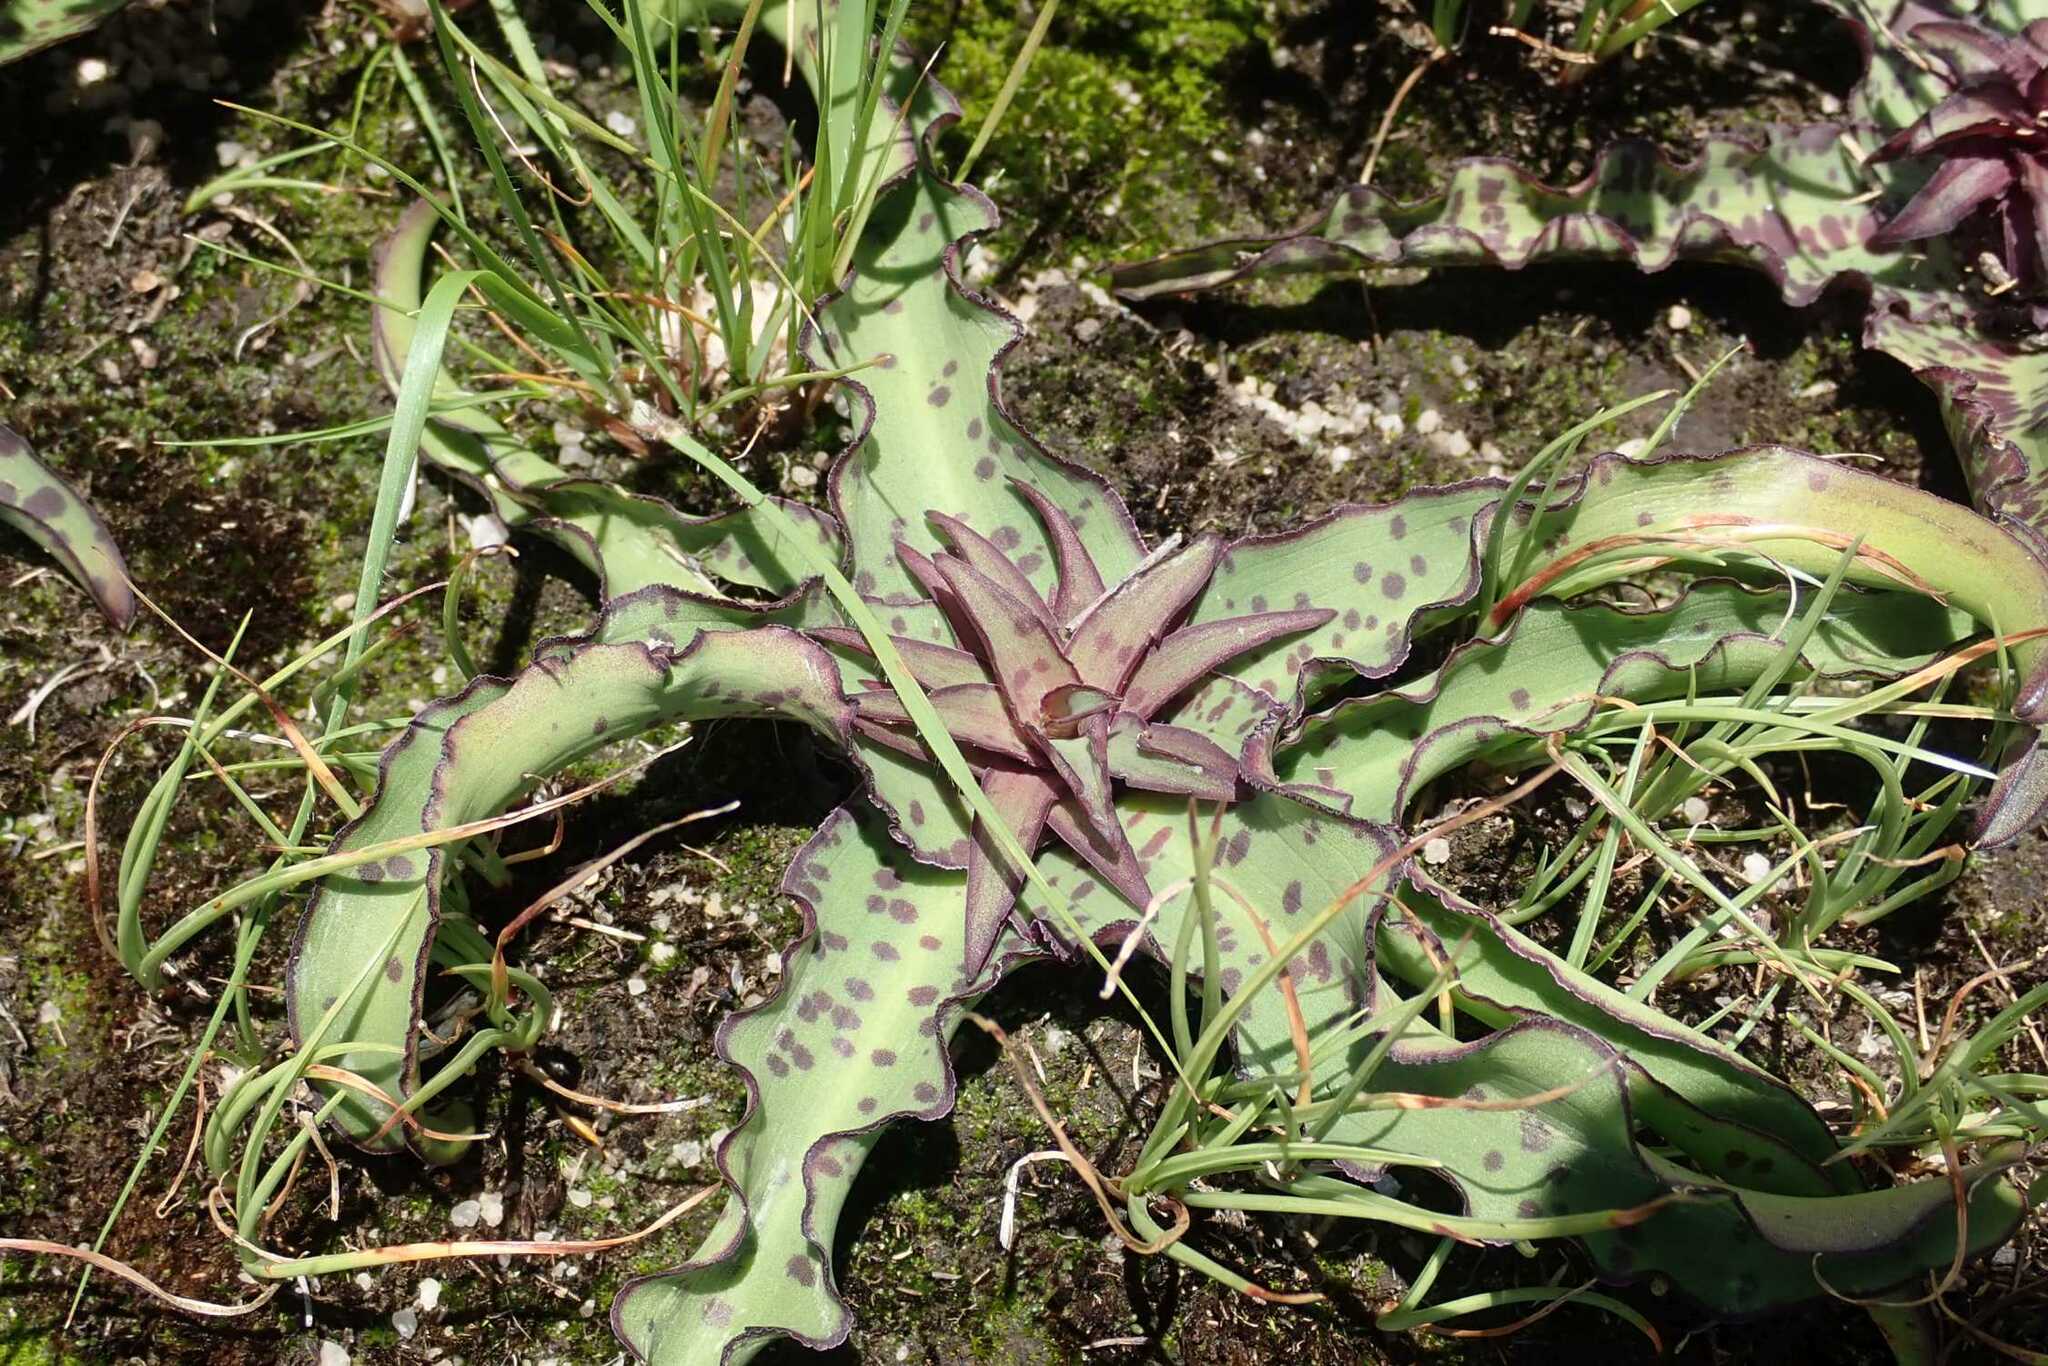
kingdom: Plantae
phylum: Tracheophyta
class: Liliopsida
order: Asparagales
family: Asparagaceae
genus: Eucomis
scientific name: Eucomis vandermerwei
